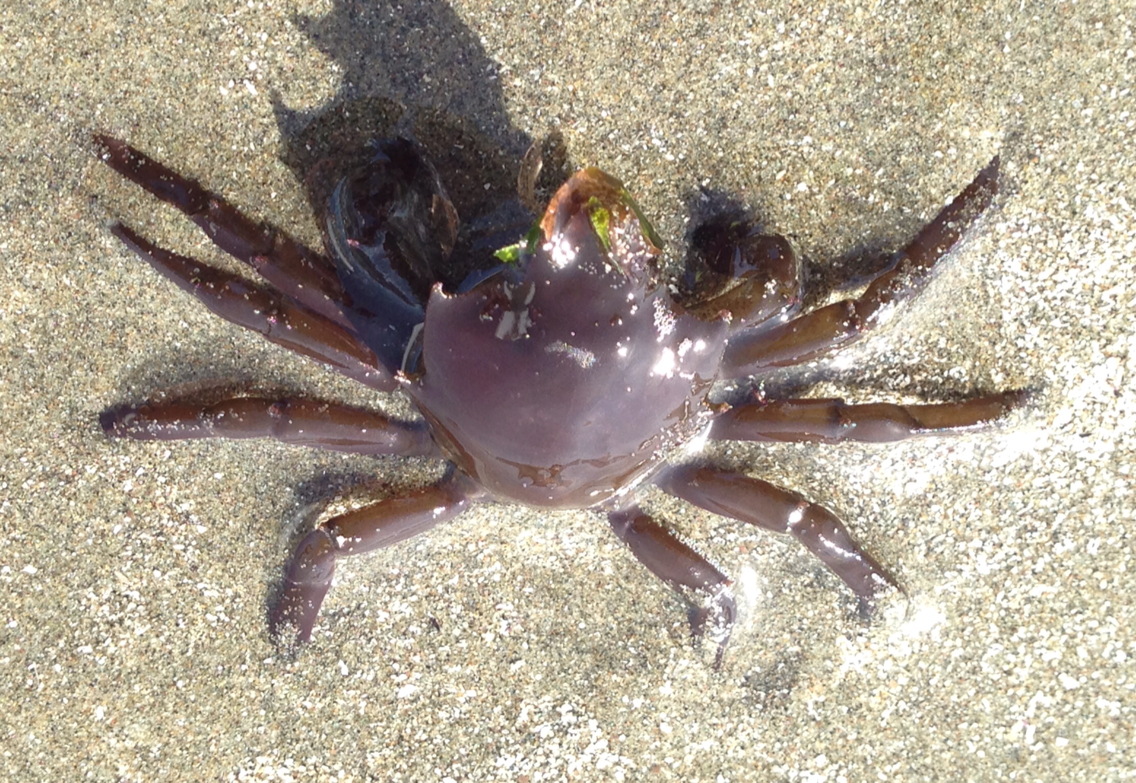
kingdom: Animalia
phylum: Arthropoda
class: Malacostraca
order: Decapoda
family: Epialtidae
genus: Pugettia
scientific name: Pugettia producta
